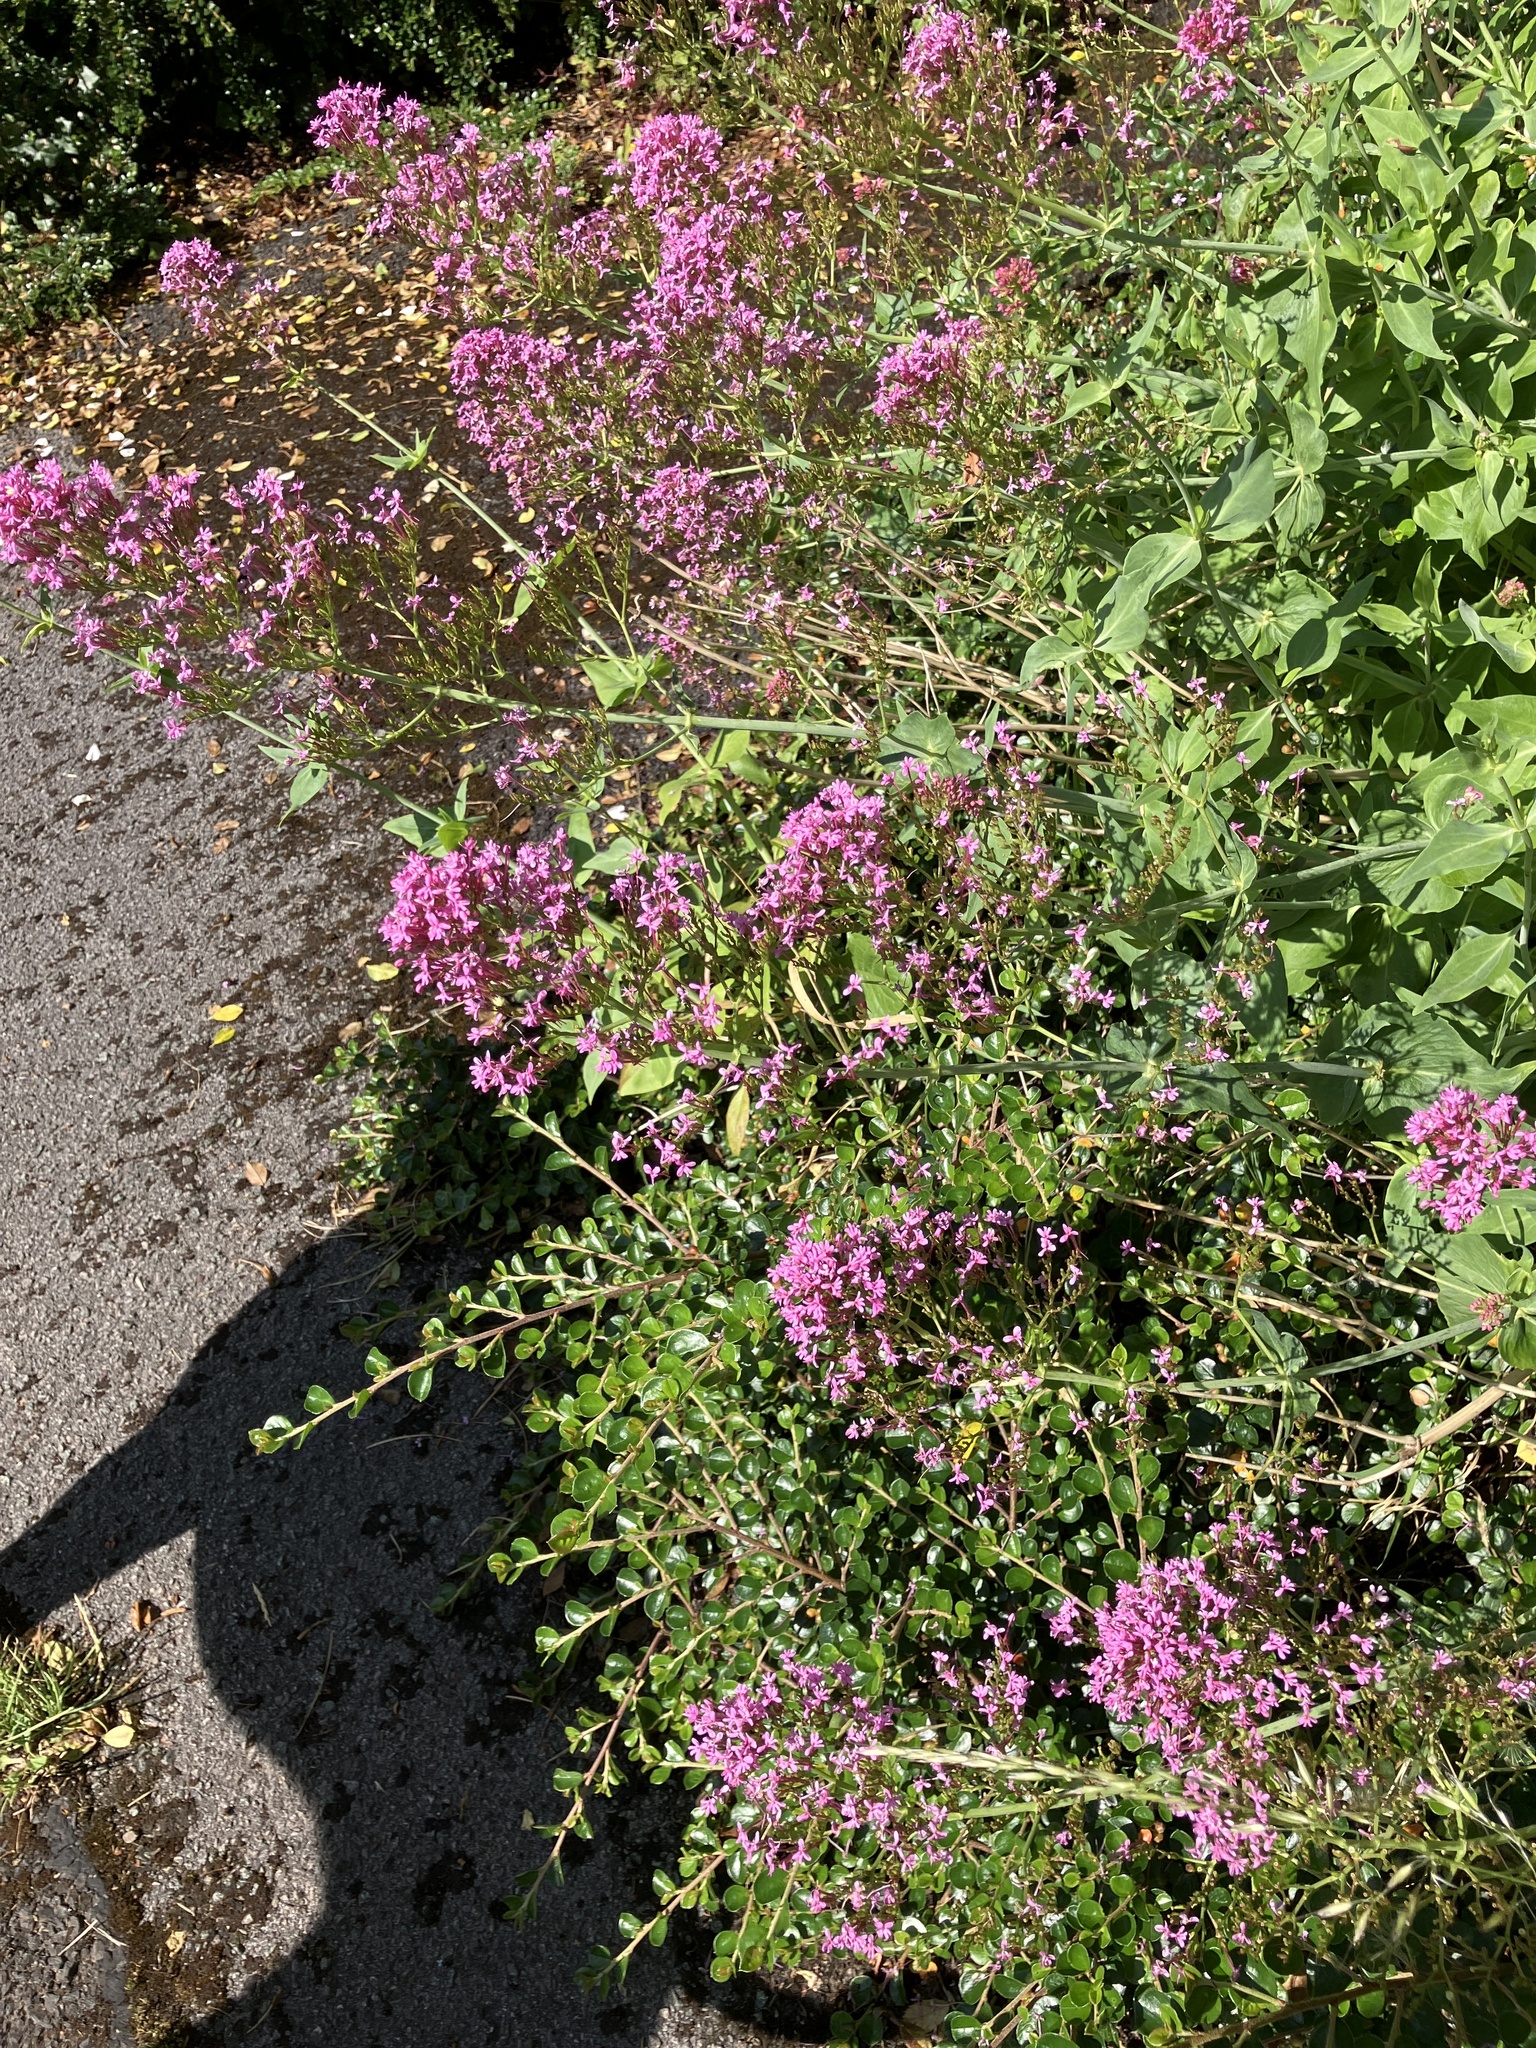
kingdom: Plantae
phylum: Tracheophyta
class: Magnoliopsida
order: Dipsacales
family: Caprifoliaceae
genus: Centranthus
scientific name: Centranthus ruber
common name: Red valerian
